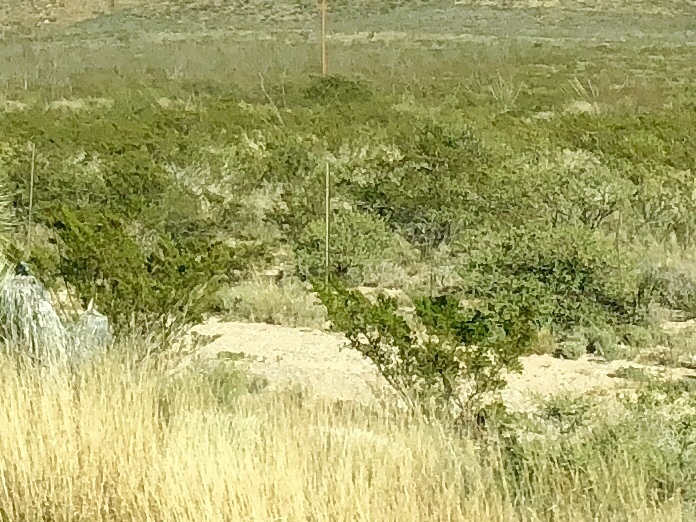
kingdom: Plantae
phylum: Tracheophyta
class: Magnoliopsida
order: Zygophyllales
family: Zygophyllaceae
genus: Larrea
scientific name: Larrea tridentata
